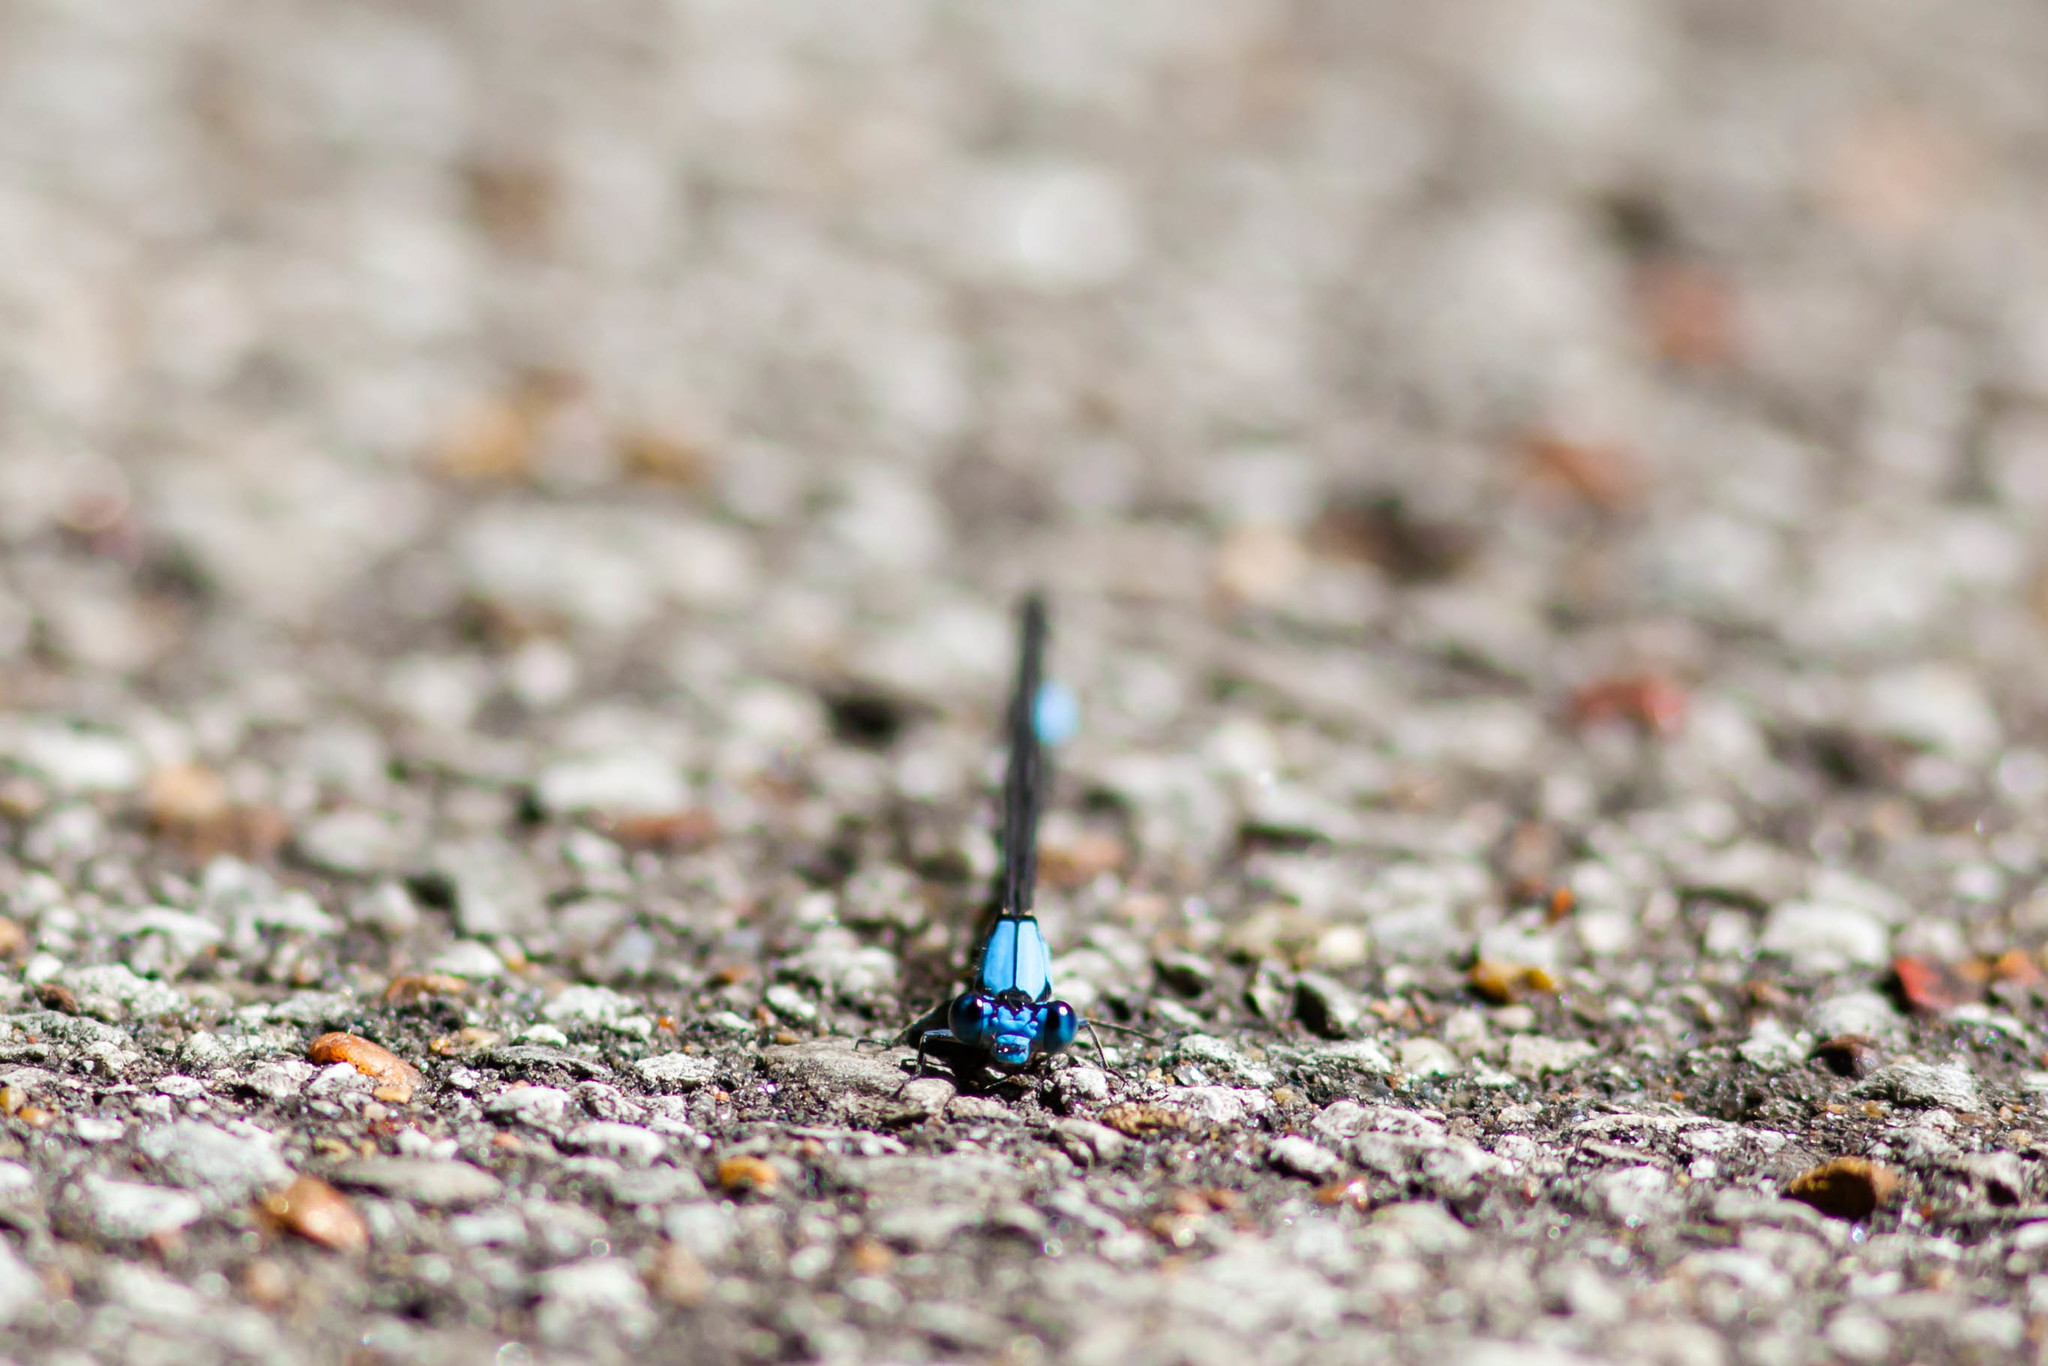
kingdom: Animalia
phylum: Arthropoda
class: Insecta
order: Odonata
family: Coenagrionidae
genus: Argia
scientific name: Argia apicalis
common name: Blue-fronted dancer
